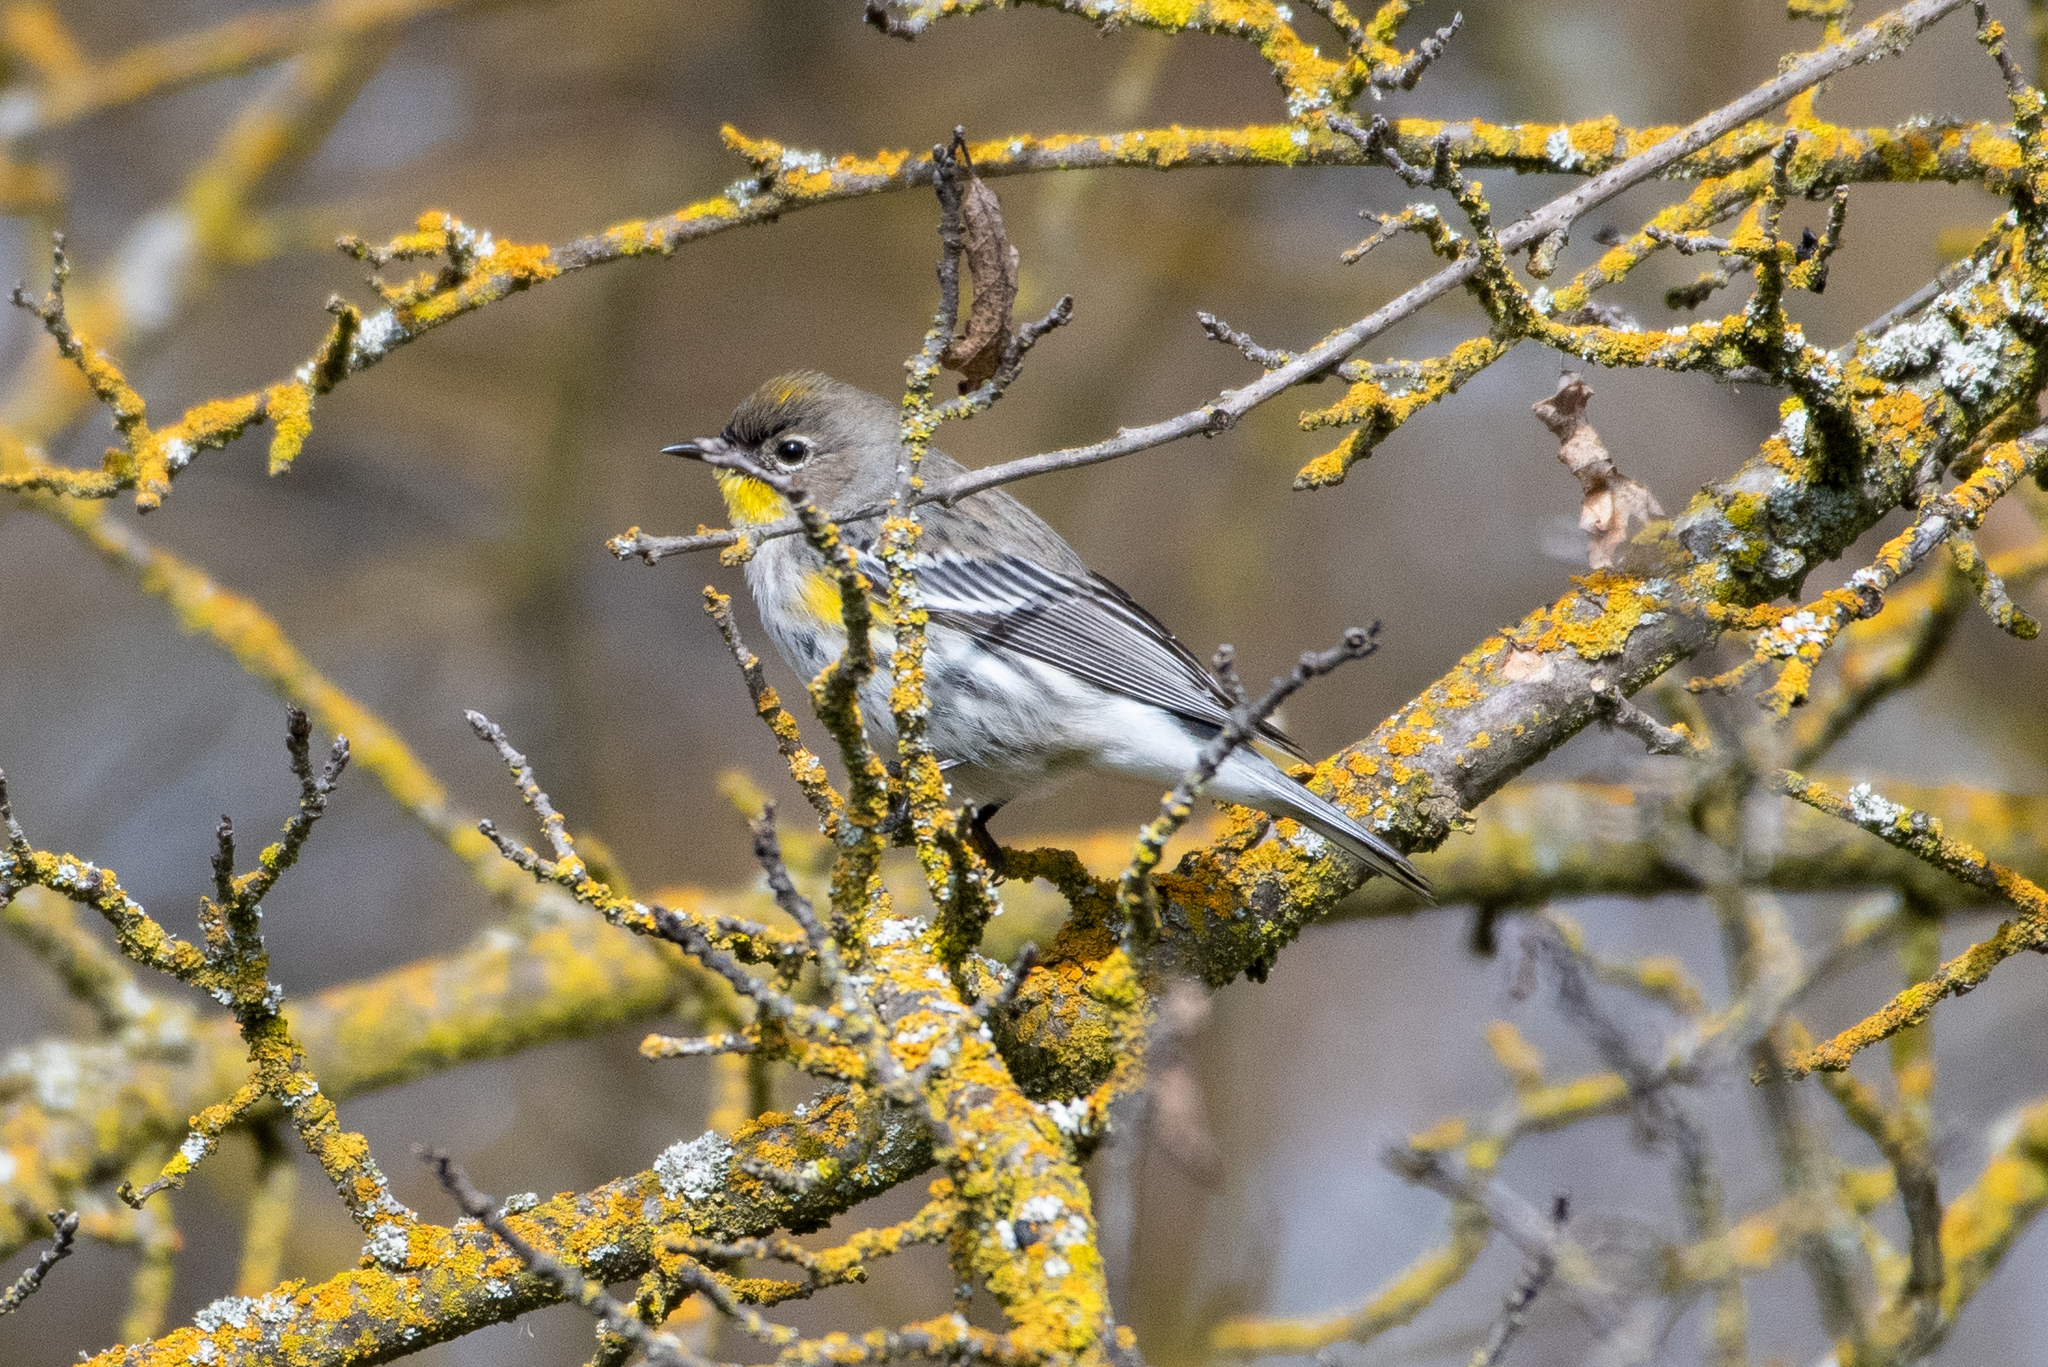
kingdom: Animalia
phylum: Chordata
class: Aves
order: Passeriformes
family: Parulidae
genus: Setophaga
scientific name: Setophaga coronata
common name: Myrtle warbler
